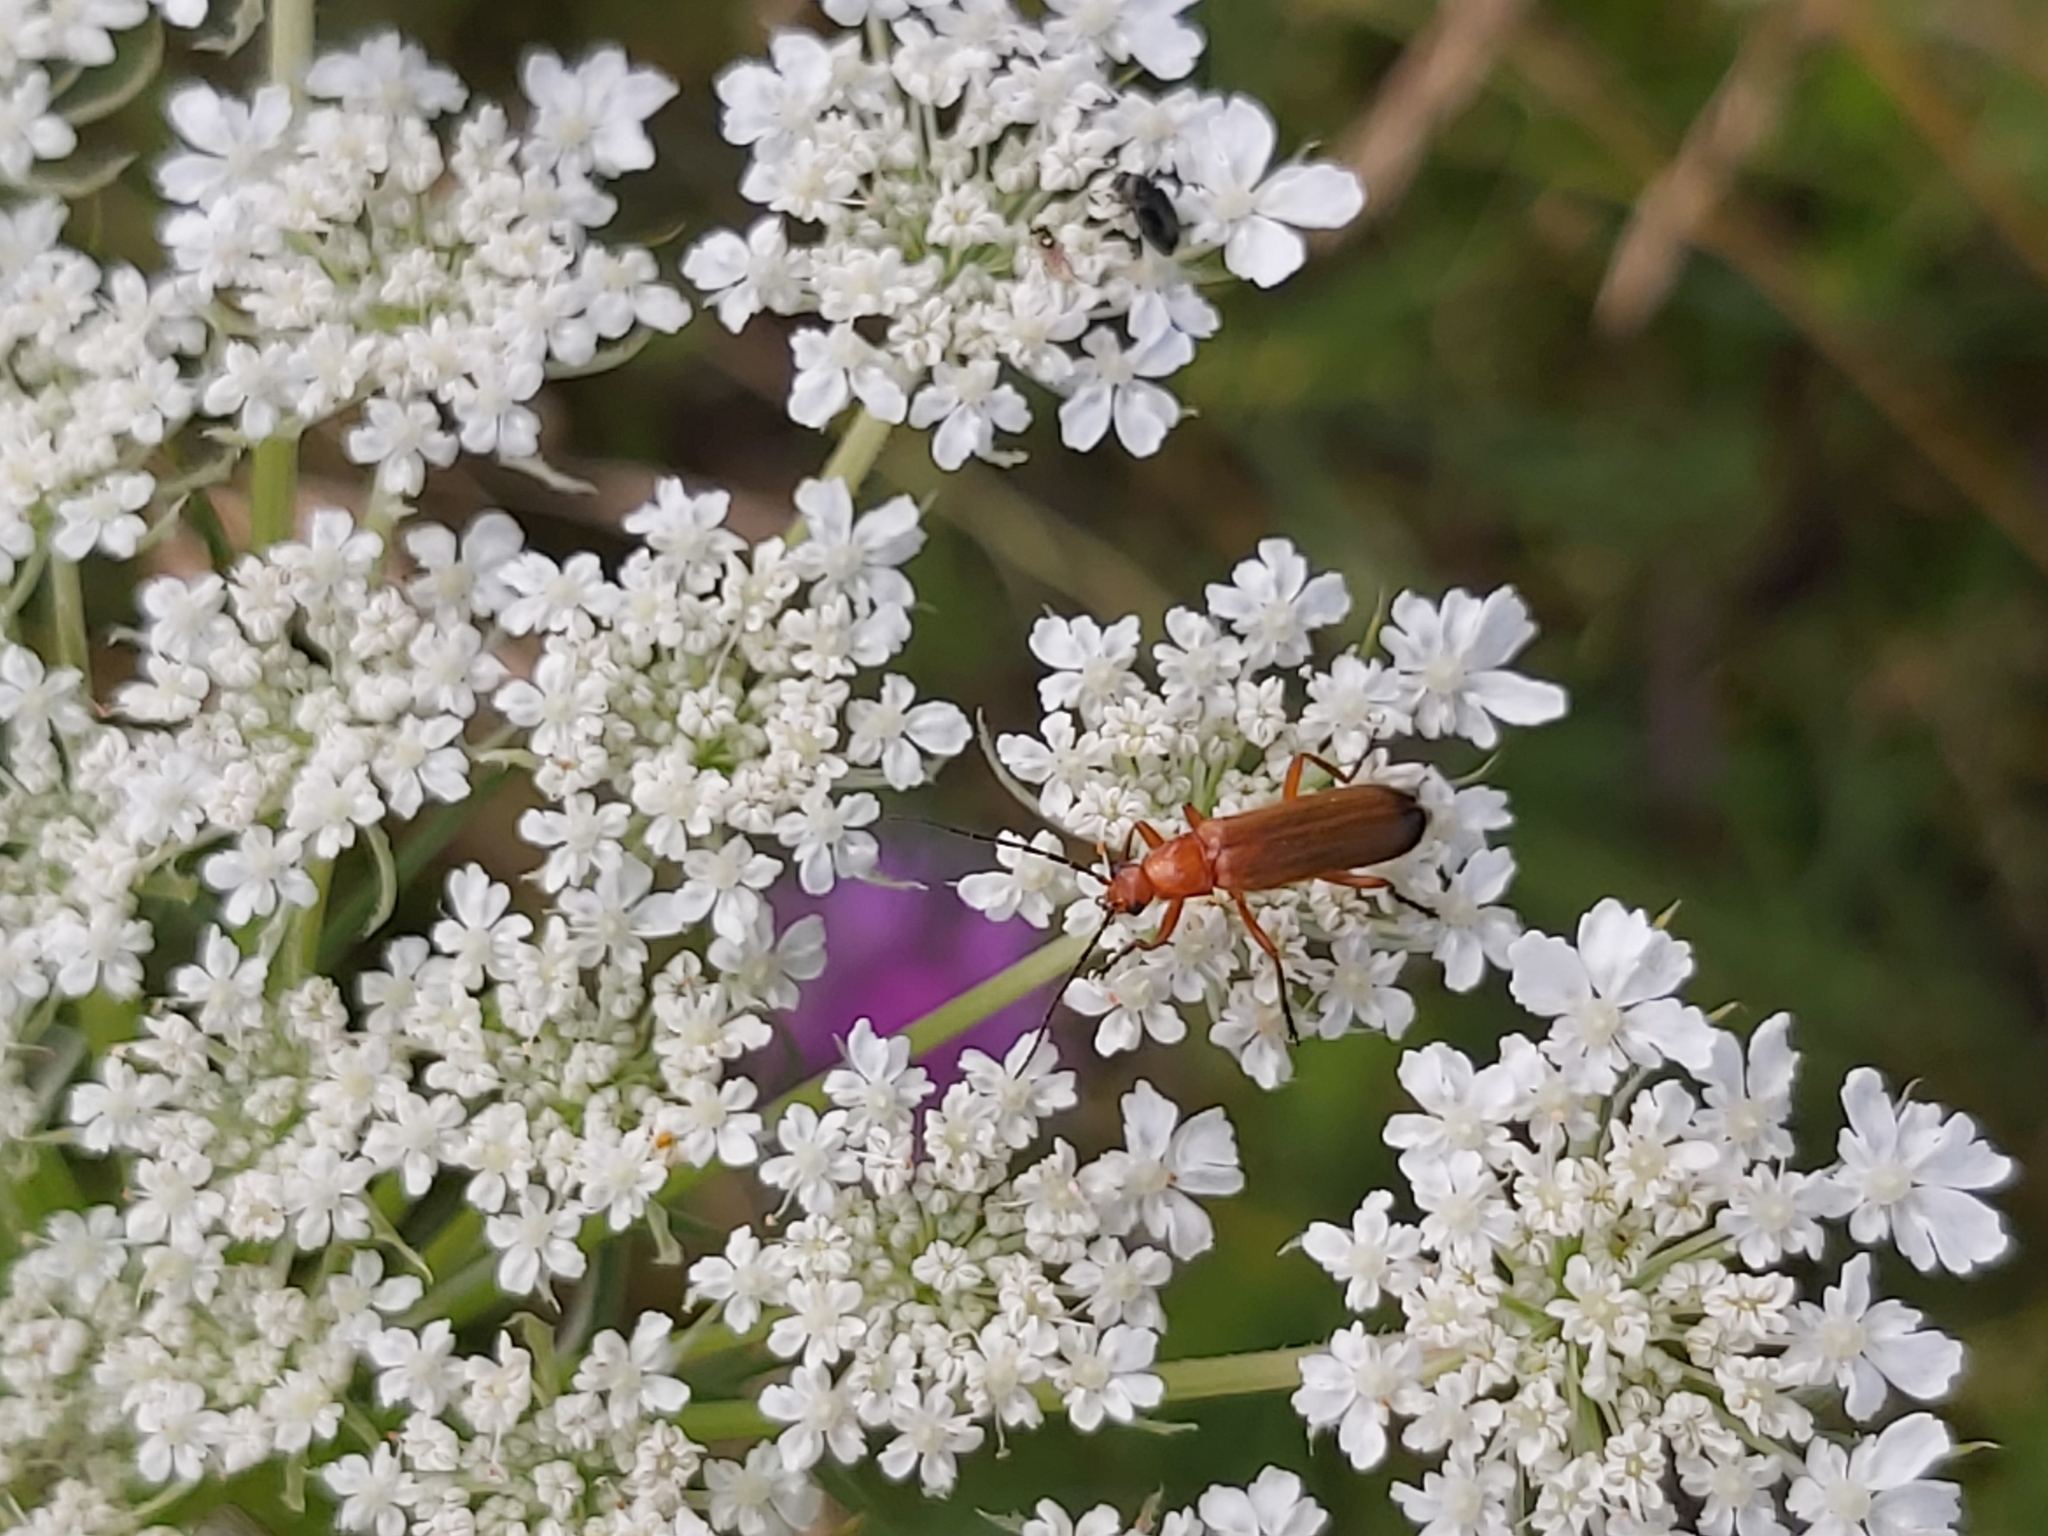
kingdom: Animalia
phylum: Arthropoda
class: Insecta
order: Coleoptera
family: Cantharidae
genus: Rhagonycha
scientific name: Rhagonycha fulva
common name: Common red soldier beetle
